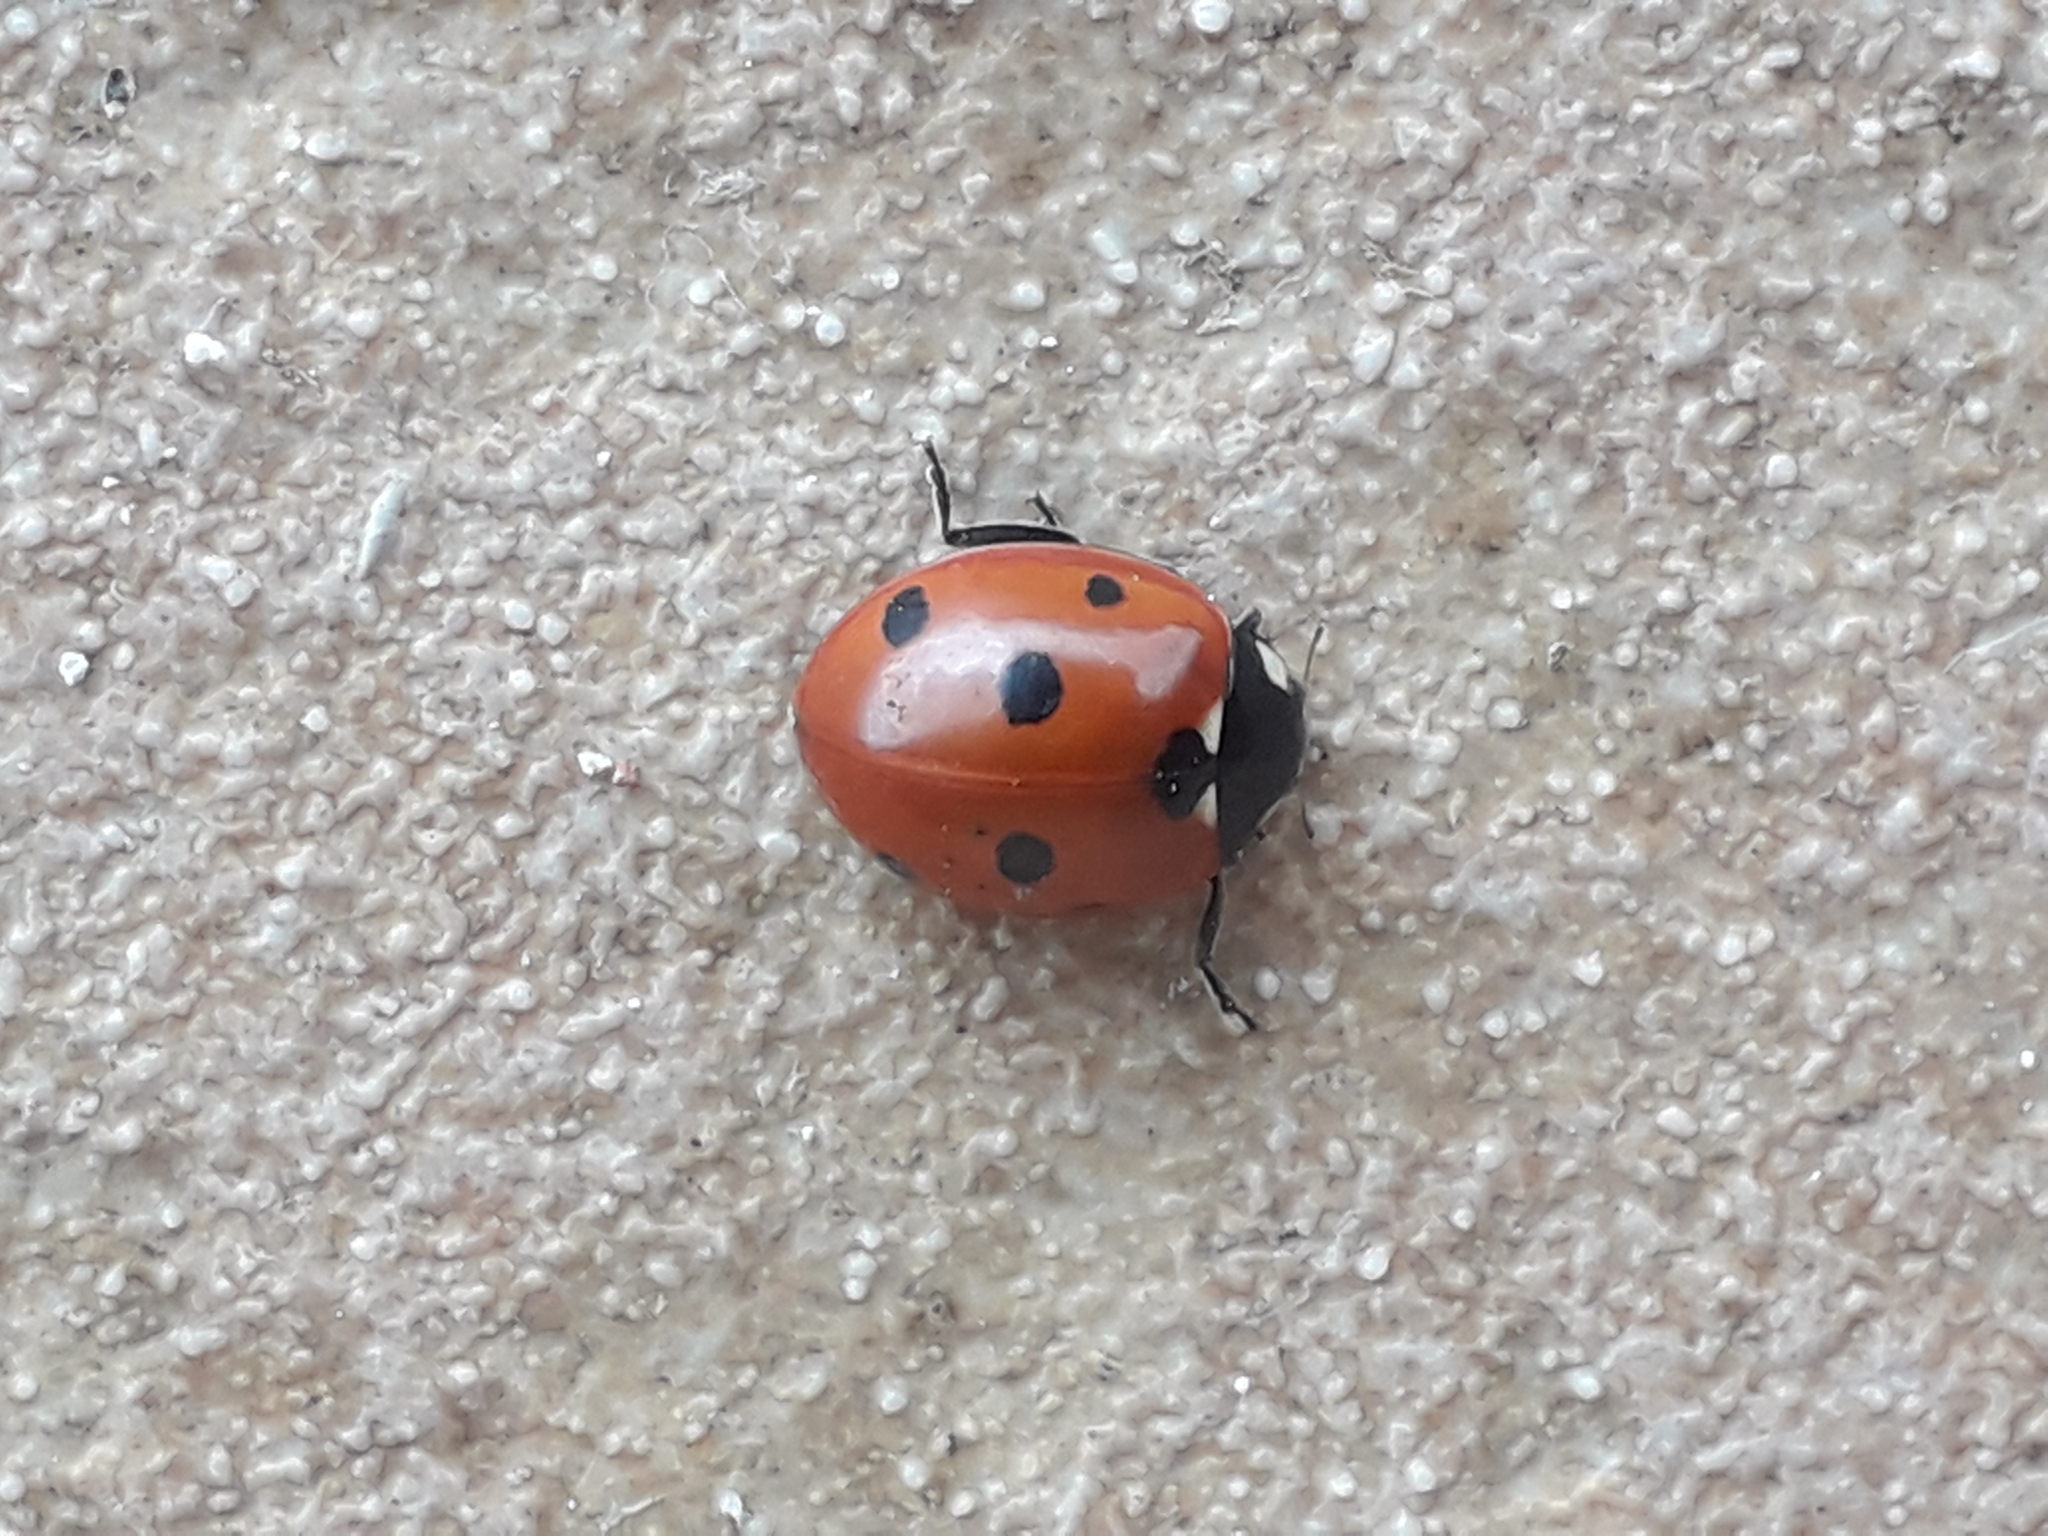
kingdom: Animalia
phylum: Arthropoda
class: Insecta
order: Coleoptera
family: Coccinellidae
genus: Coccinella
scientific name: Coccinella septempunctata
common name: Sevenspotted lady beetle
